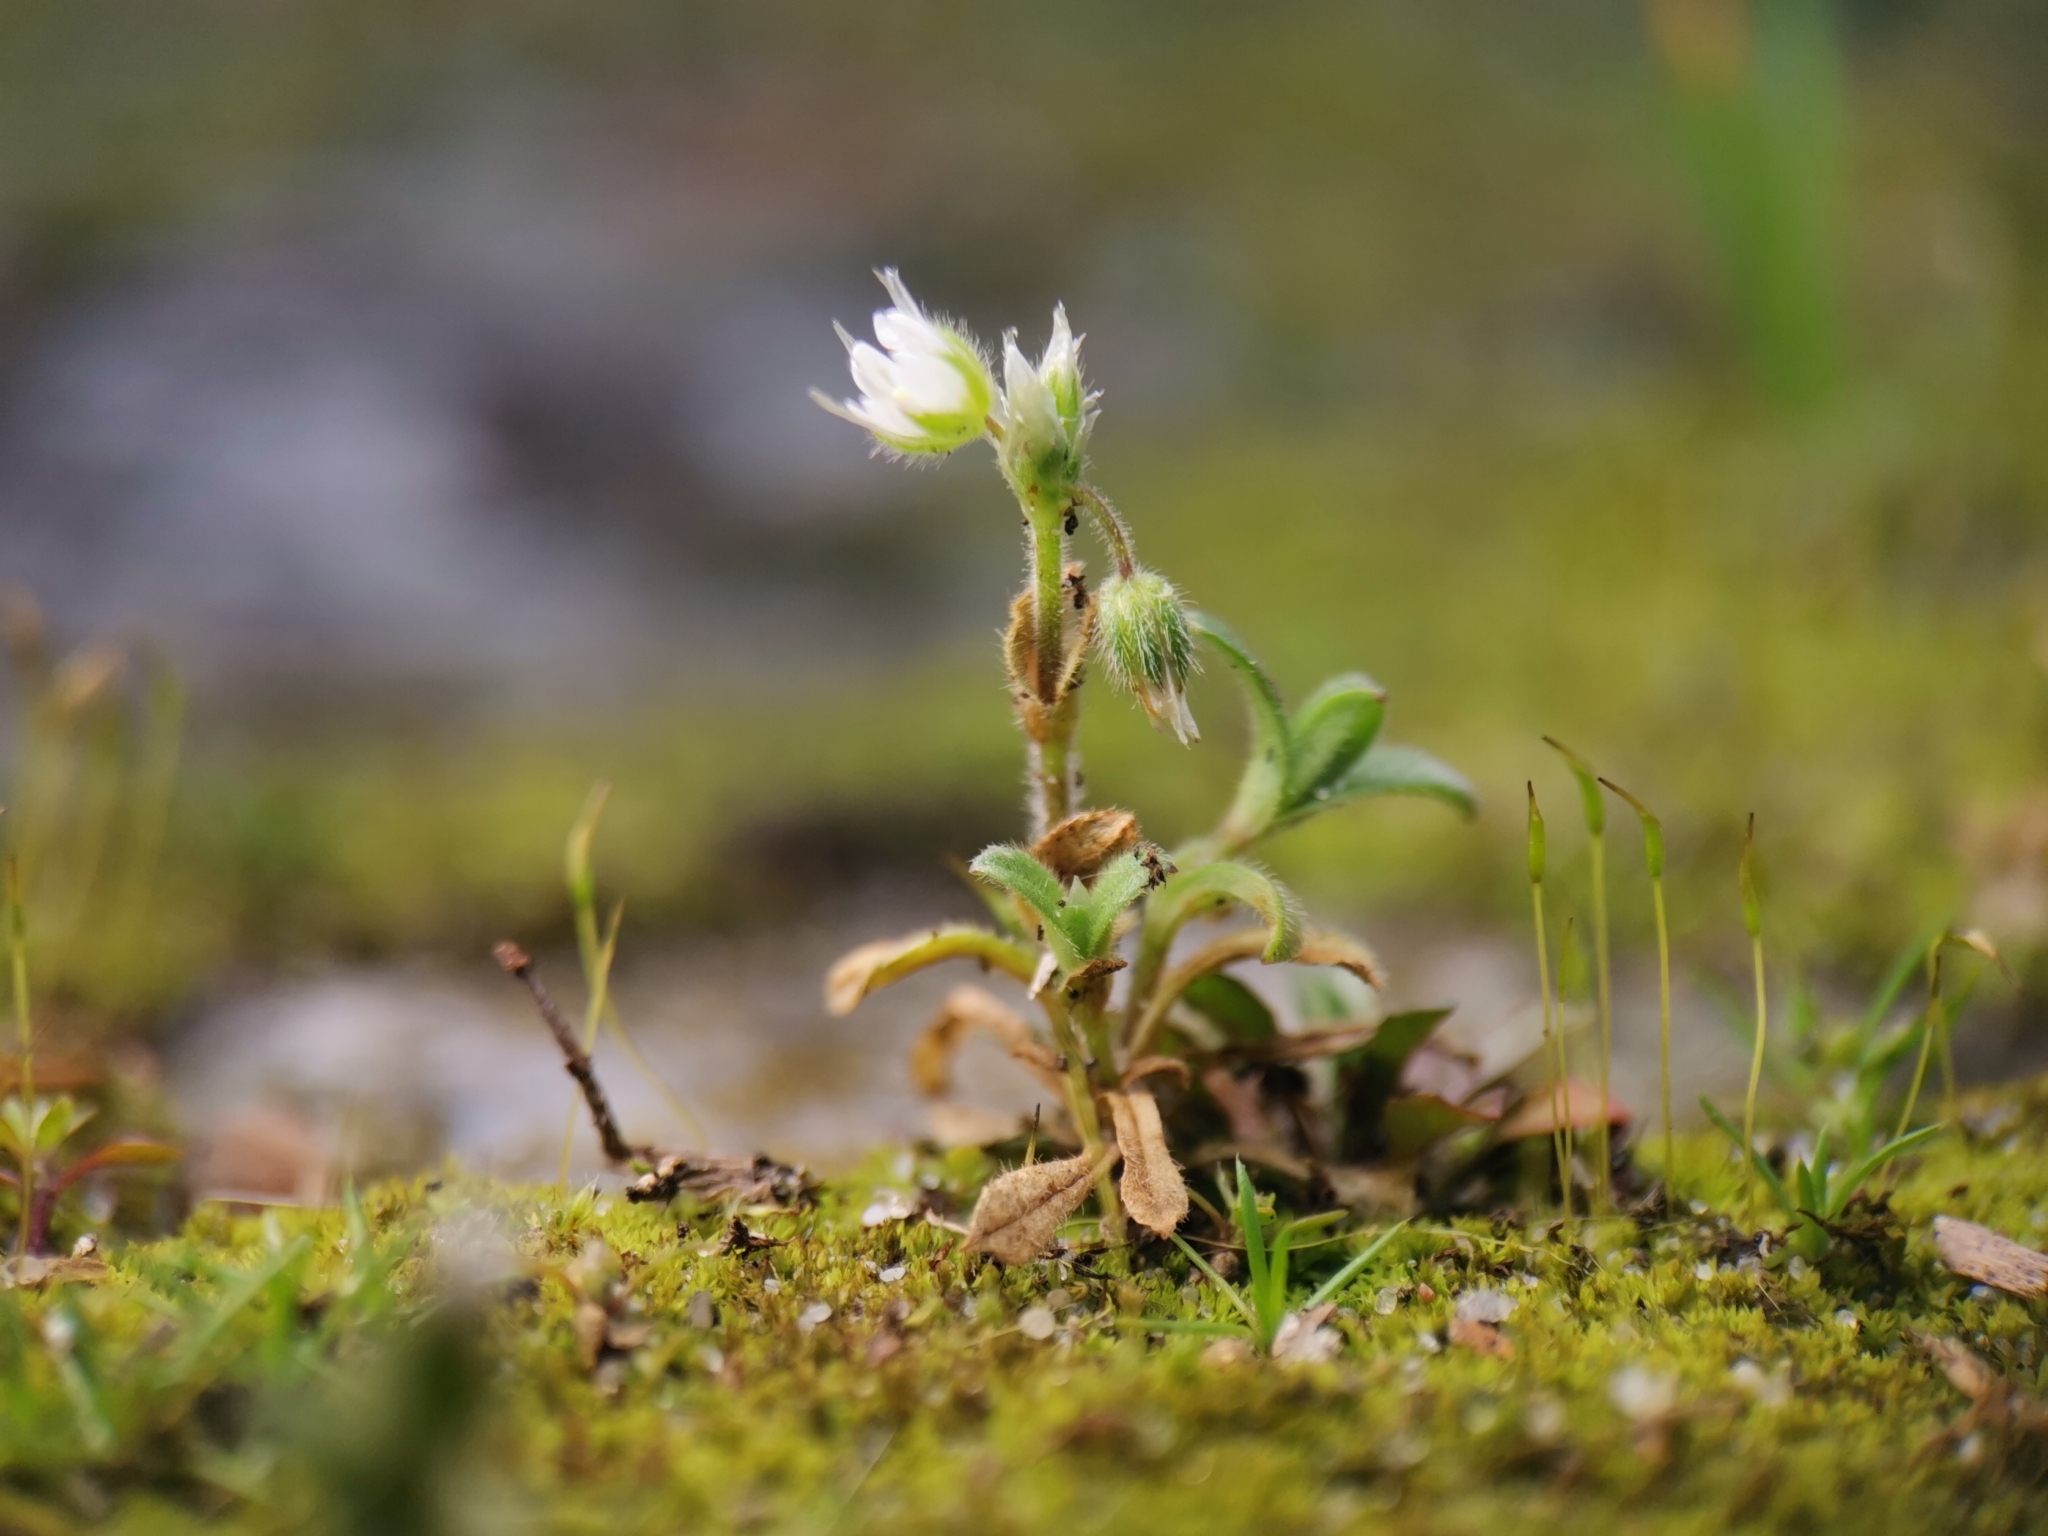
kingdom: Plantae
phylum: Tracheophyta
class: Magnoliopsida
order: Caryophyllales
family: Caryophyllaceae
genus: Cerastium
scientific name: Cerastium semidecandrum
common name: Little mouse-ear
